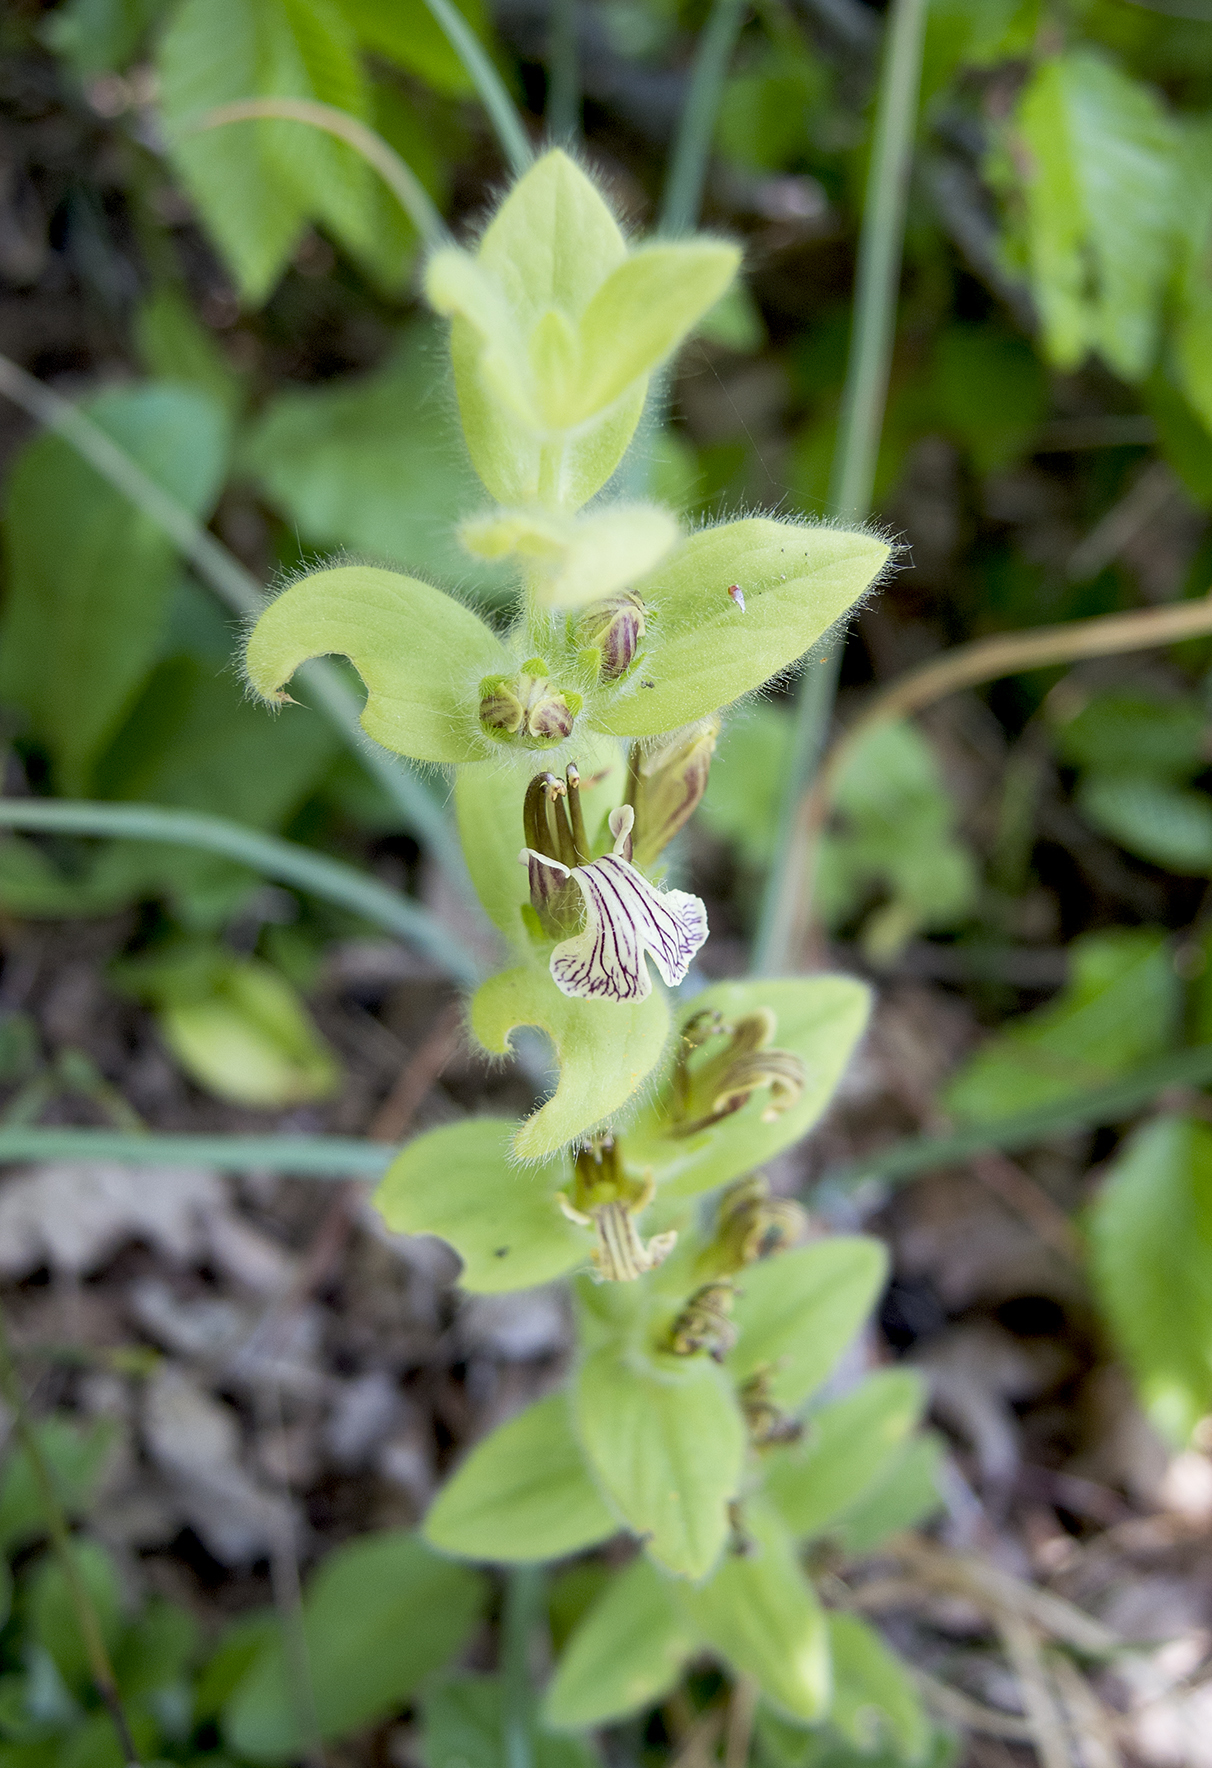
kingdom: Plantae
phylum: Tracheophyta
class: Magnoliopsida
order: Lamiales
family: Lamiaceae
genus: Ajuga
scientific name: Ajuga laxmannii
